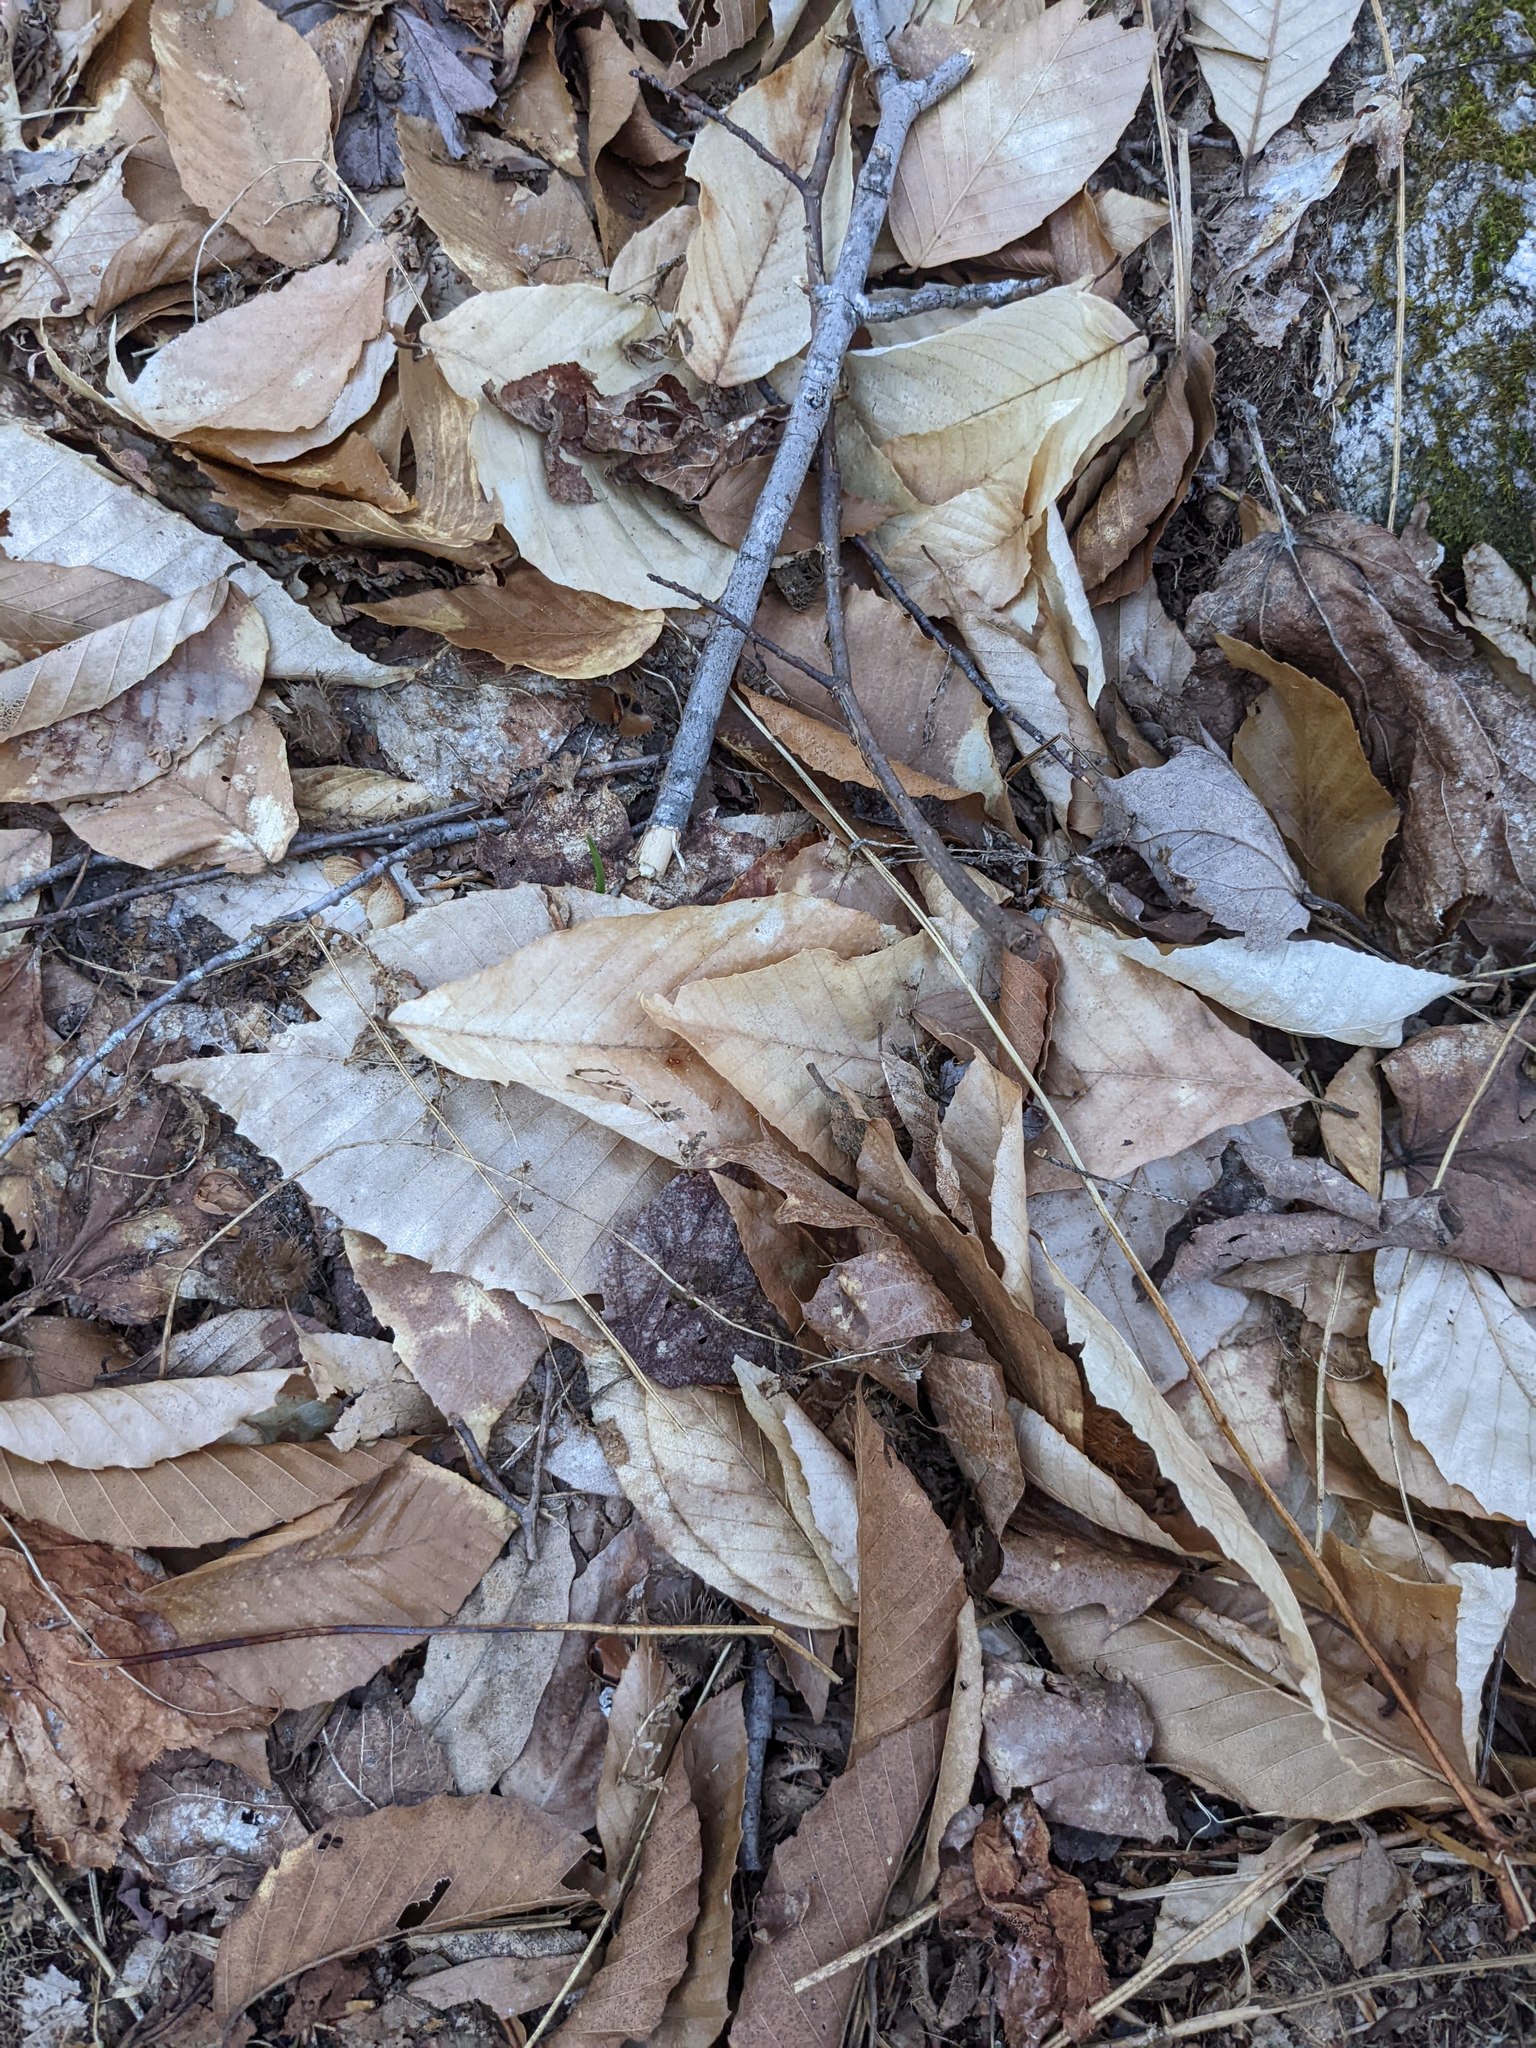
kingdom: Plantae
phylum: Tracheophyta
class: Magnoliopsida
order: Fagales
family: Fagaceae
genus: Fagus
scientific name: Fagus grandifolia
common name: American beech
